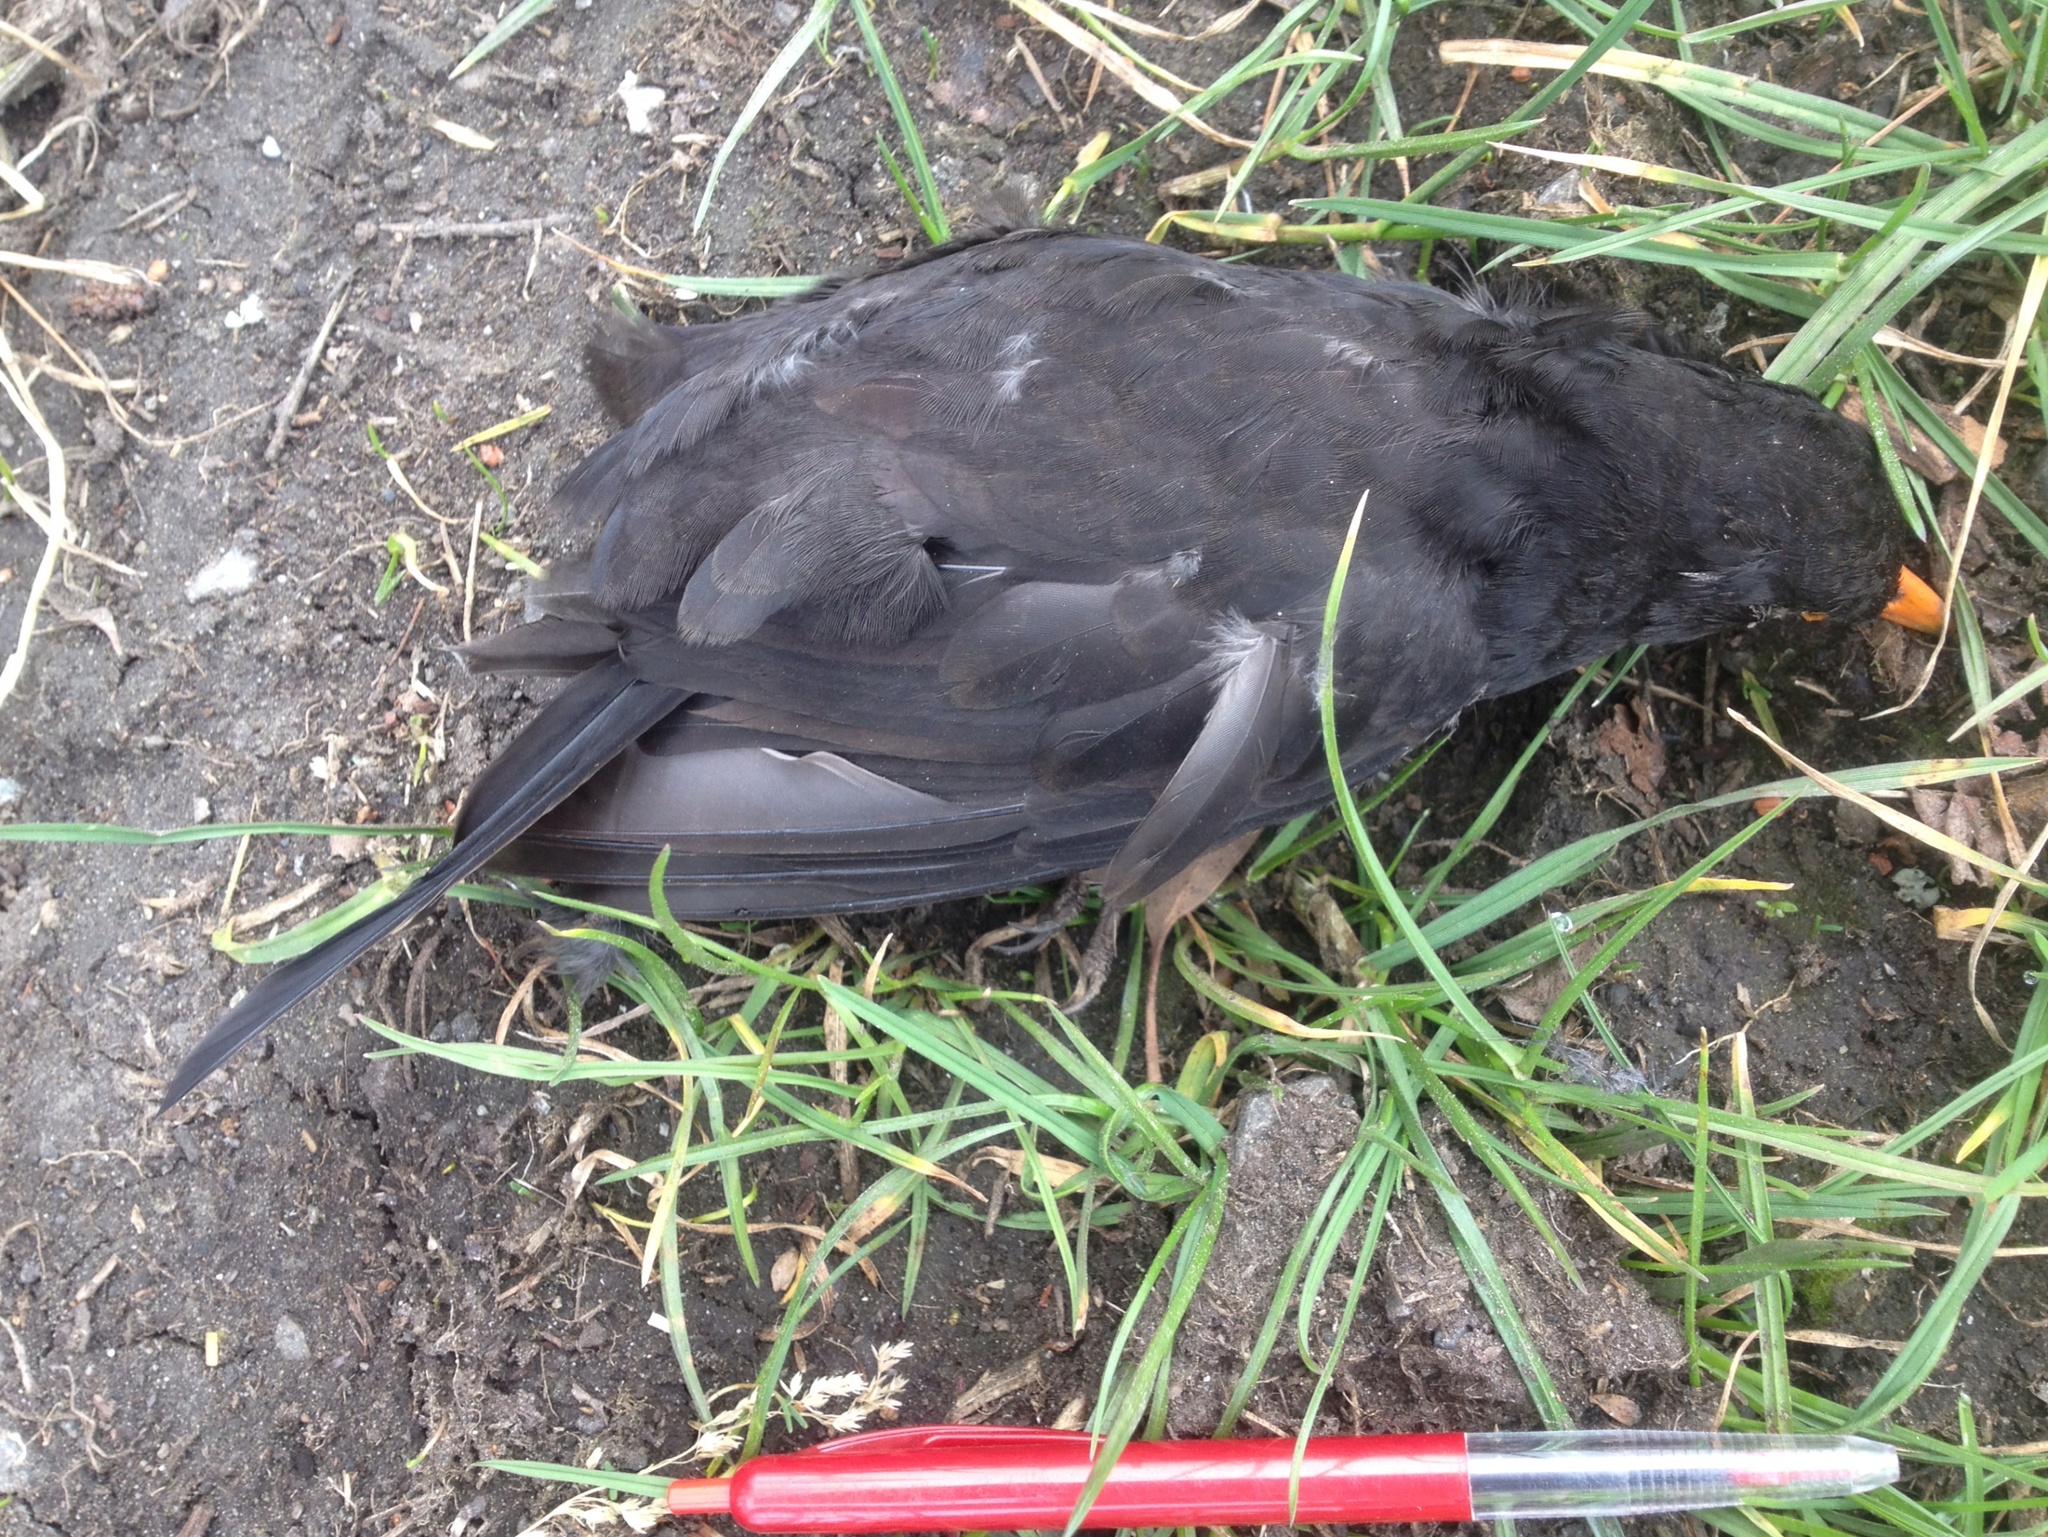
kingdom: Animalia
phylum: Chordata
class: Aves
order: Passeriformes
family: Turdidae
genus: Turdus
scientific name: Turdus merula
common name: Common blackbird
